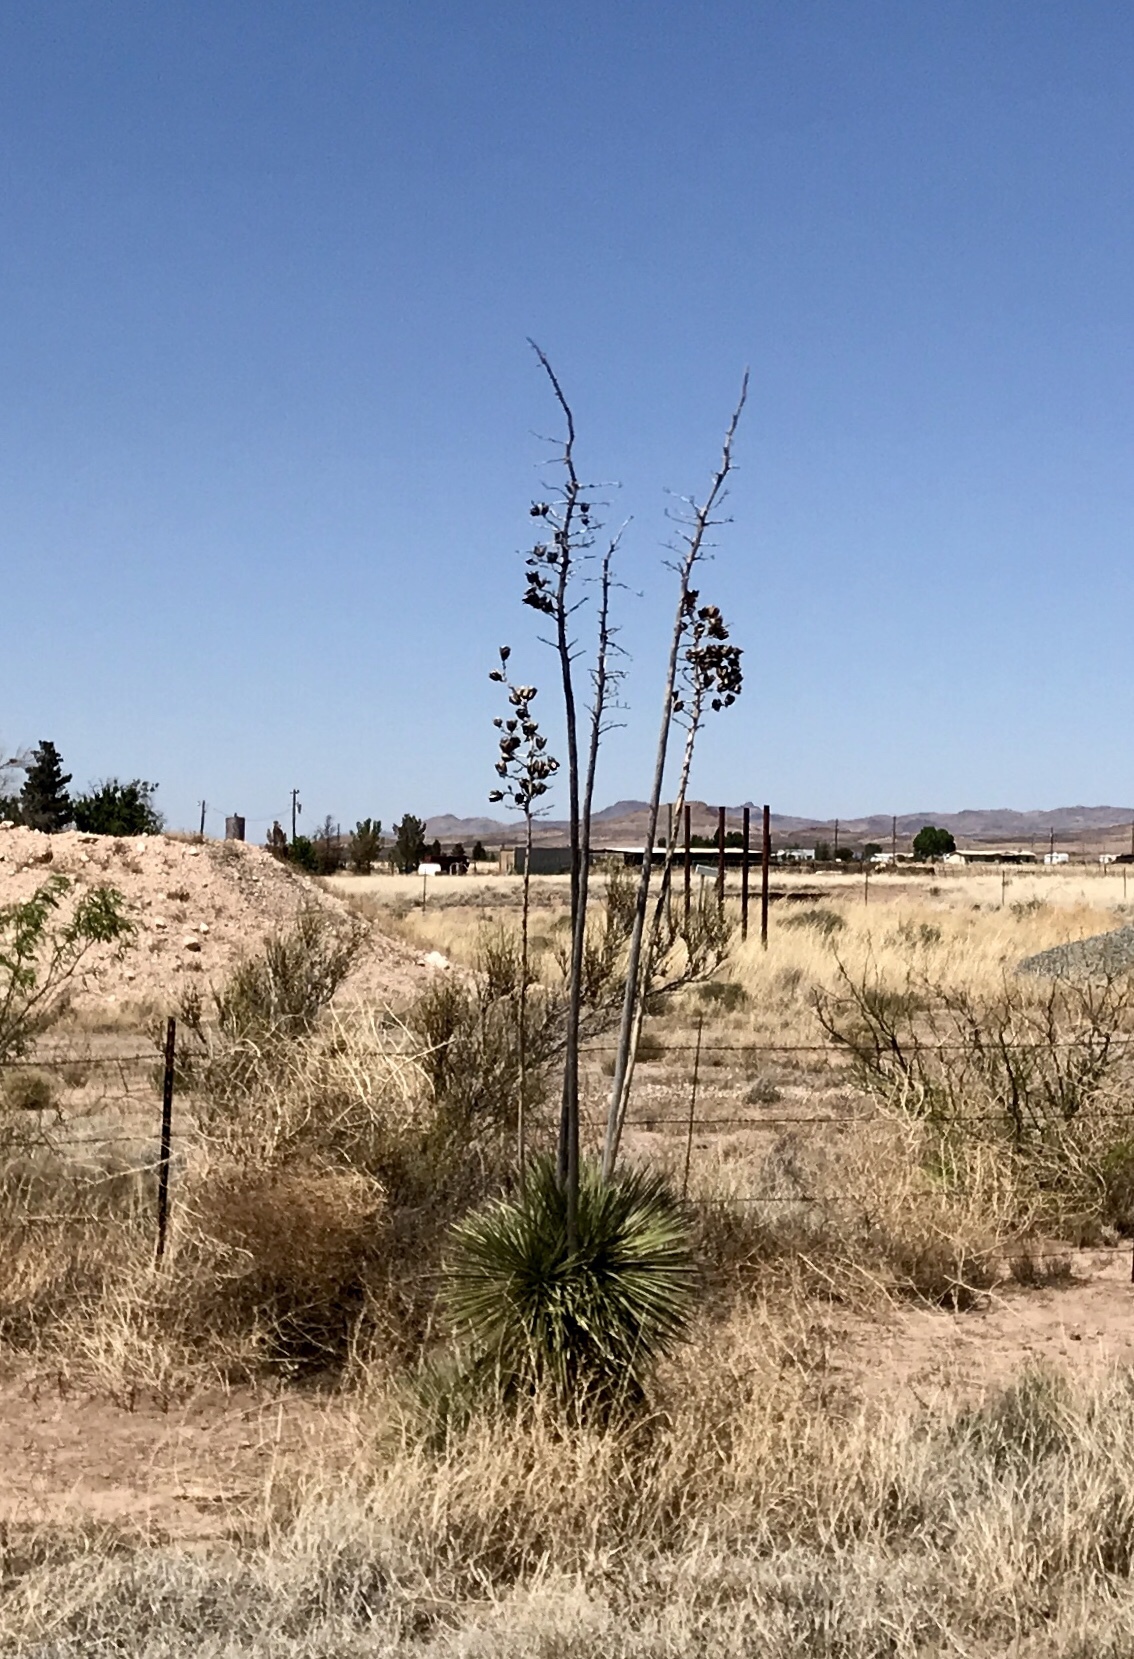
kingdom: Plantae
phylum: Tracheophyta
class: Liliopsida
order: Asparagales
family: Asparagaceae
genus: Yucca
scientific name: Yucca elata
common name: Palmella
